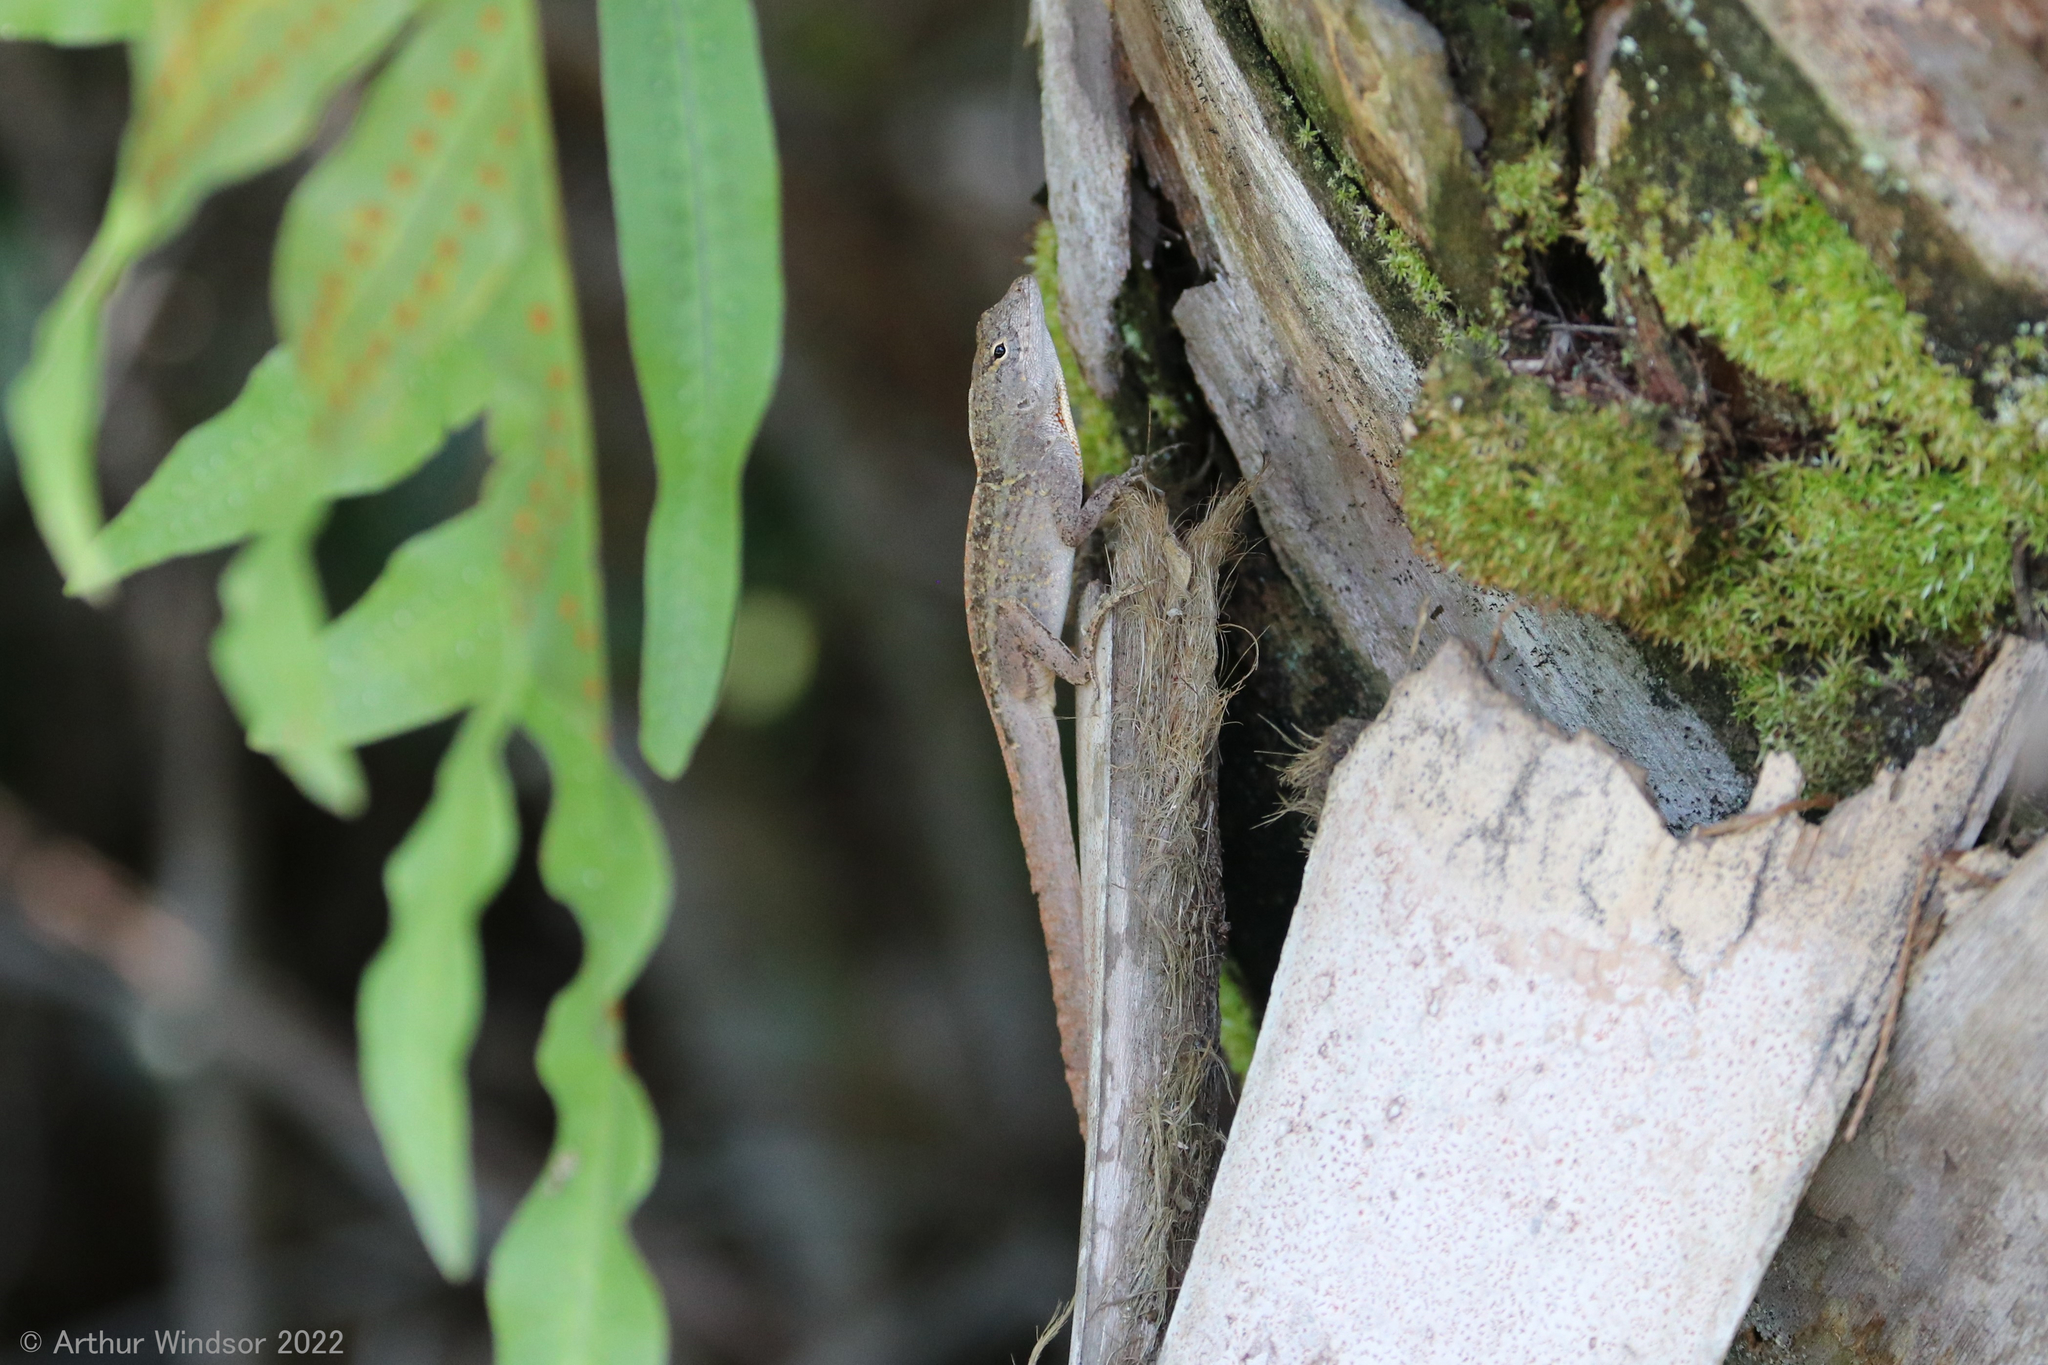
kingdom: Animalia
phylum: Chordata
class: Squamata
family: Dactyloidae
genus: Anolis
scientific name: Anolis sagrei
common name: Brown anole
